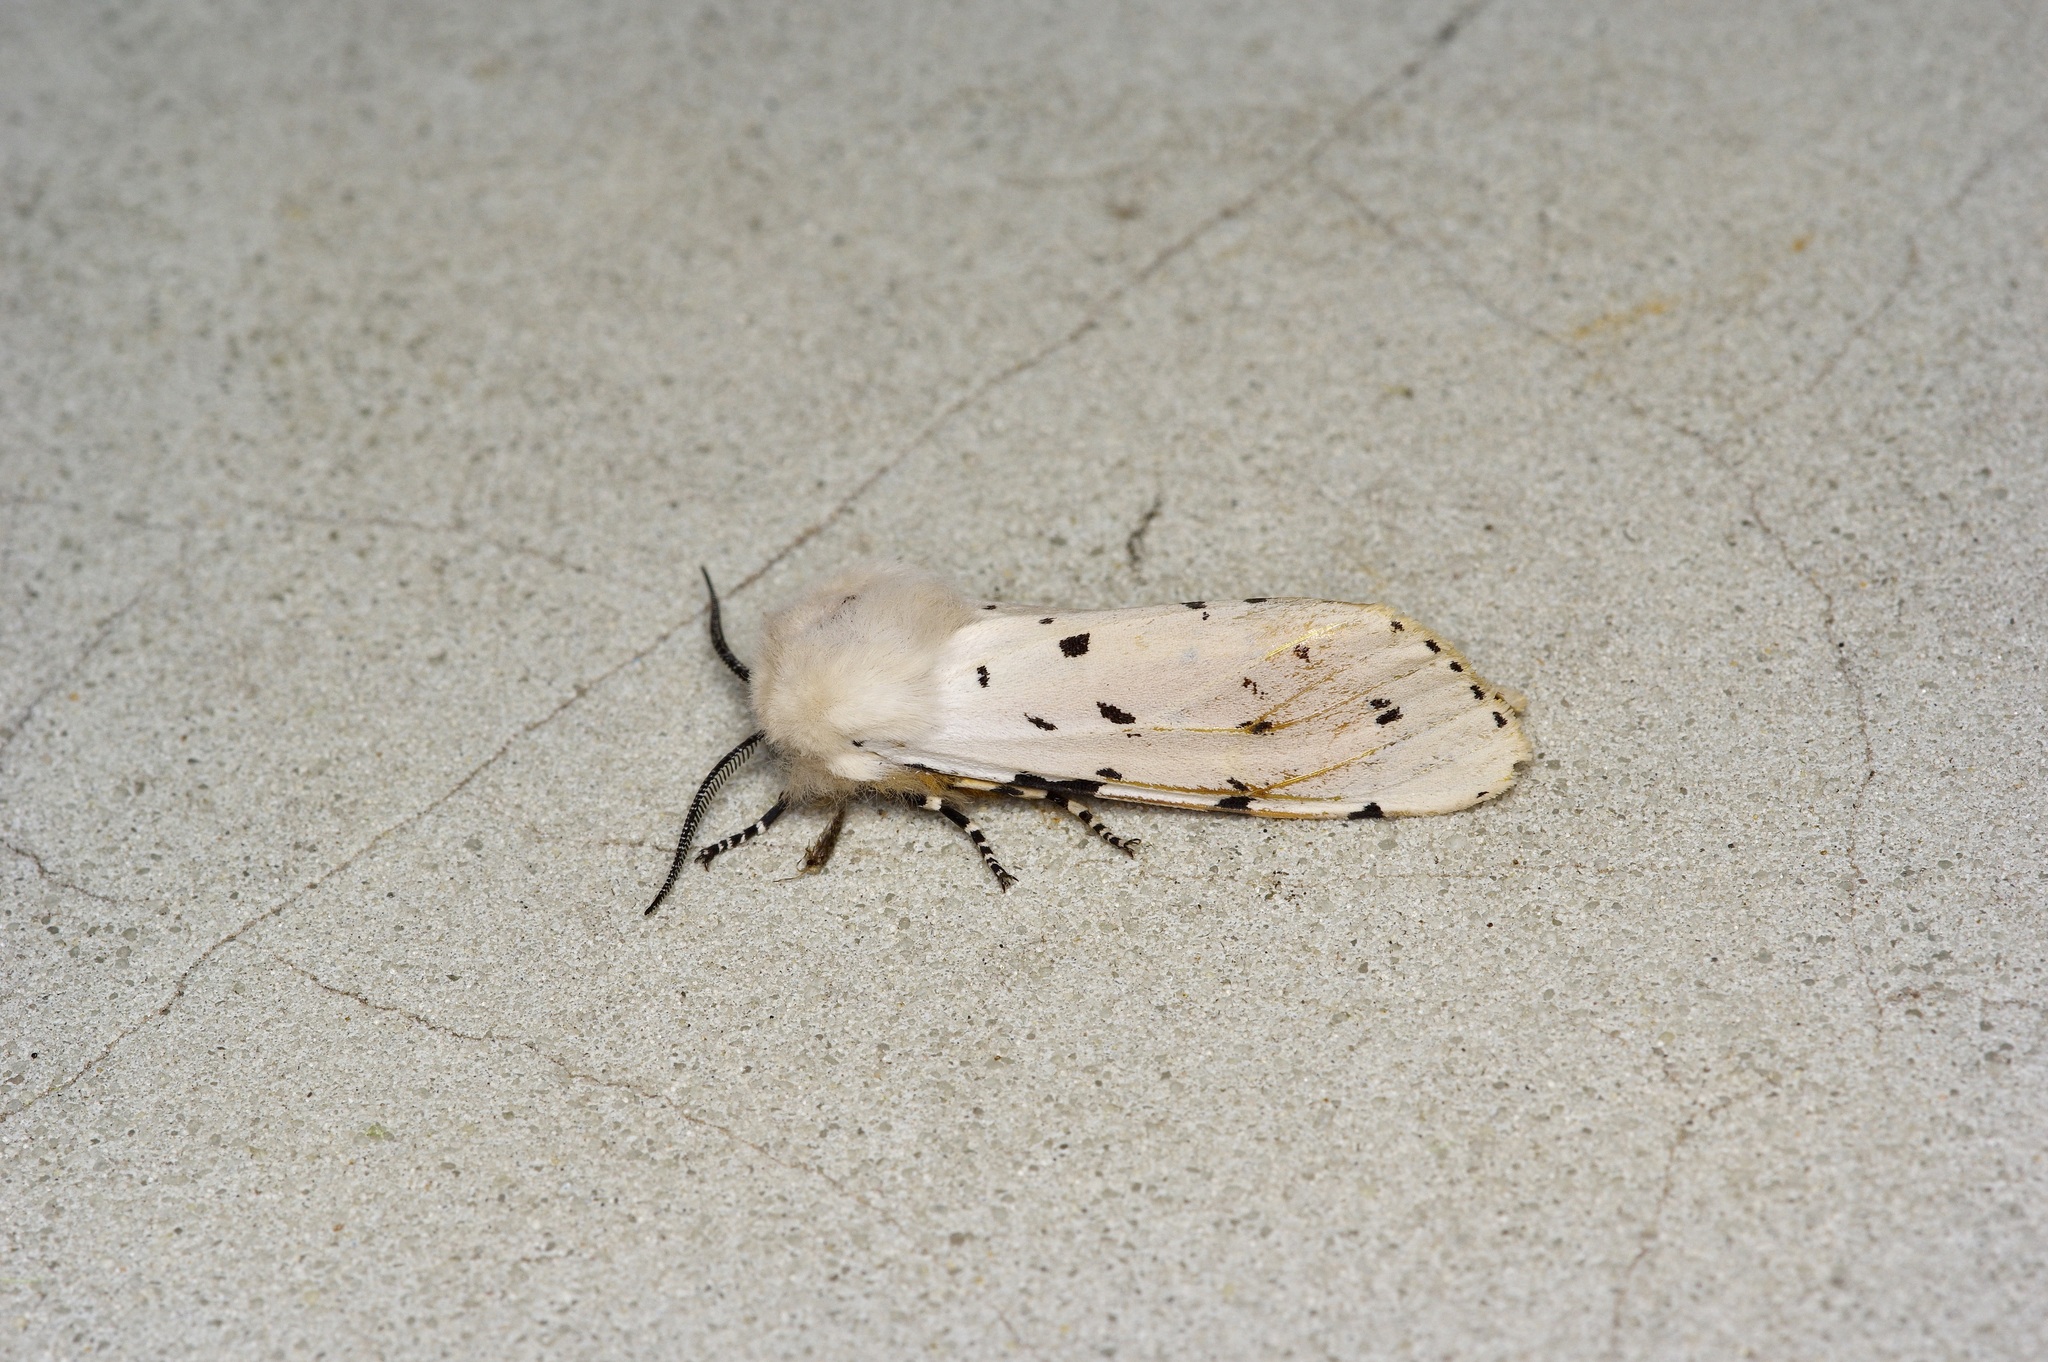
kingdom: Animalia
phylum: Arthropoda
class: Insecta
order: Lepidoptera
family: Erebidae
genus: Estigmene
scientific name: Estigmene acrea
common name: Salt marsh moth
